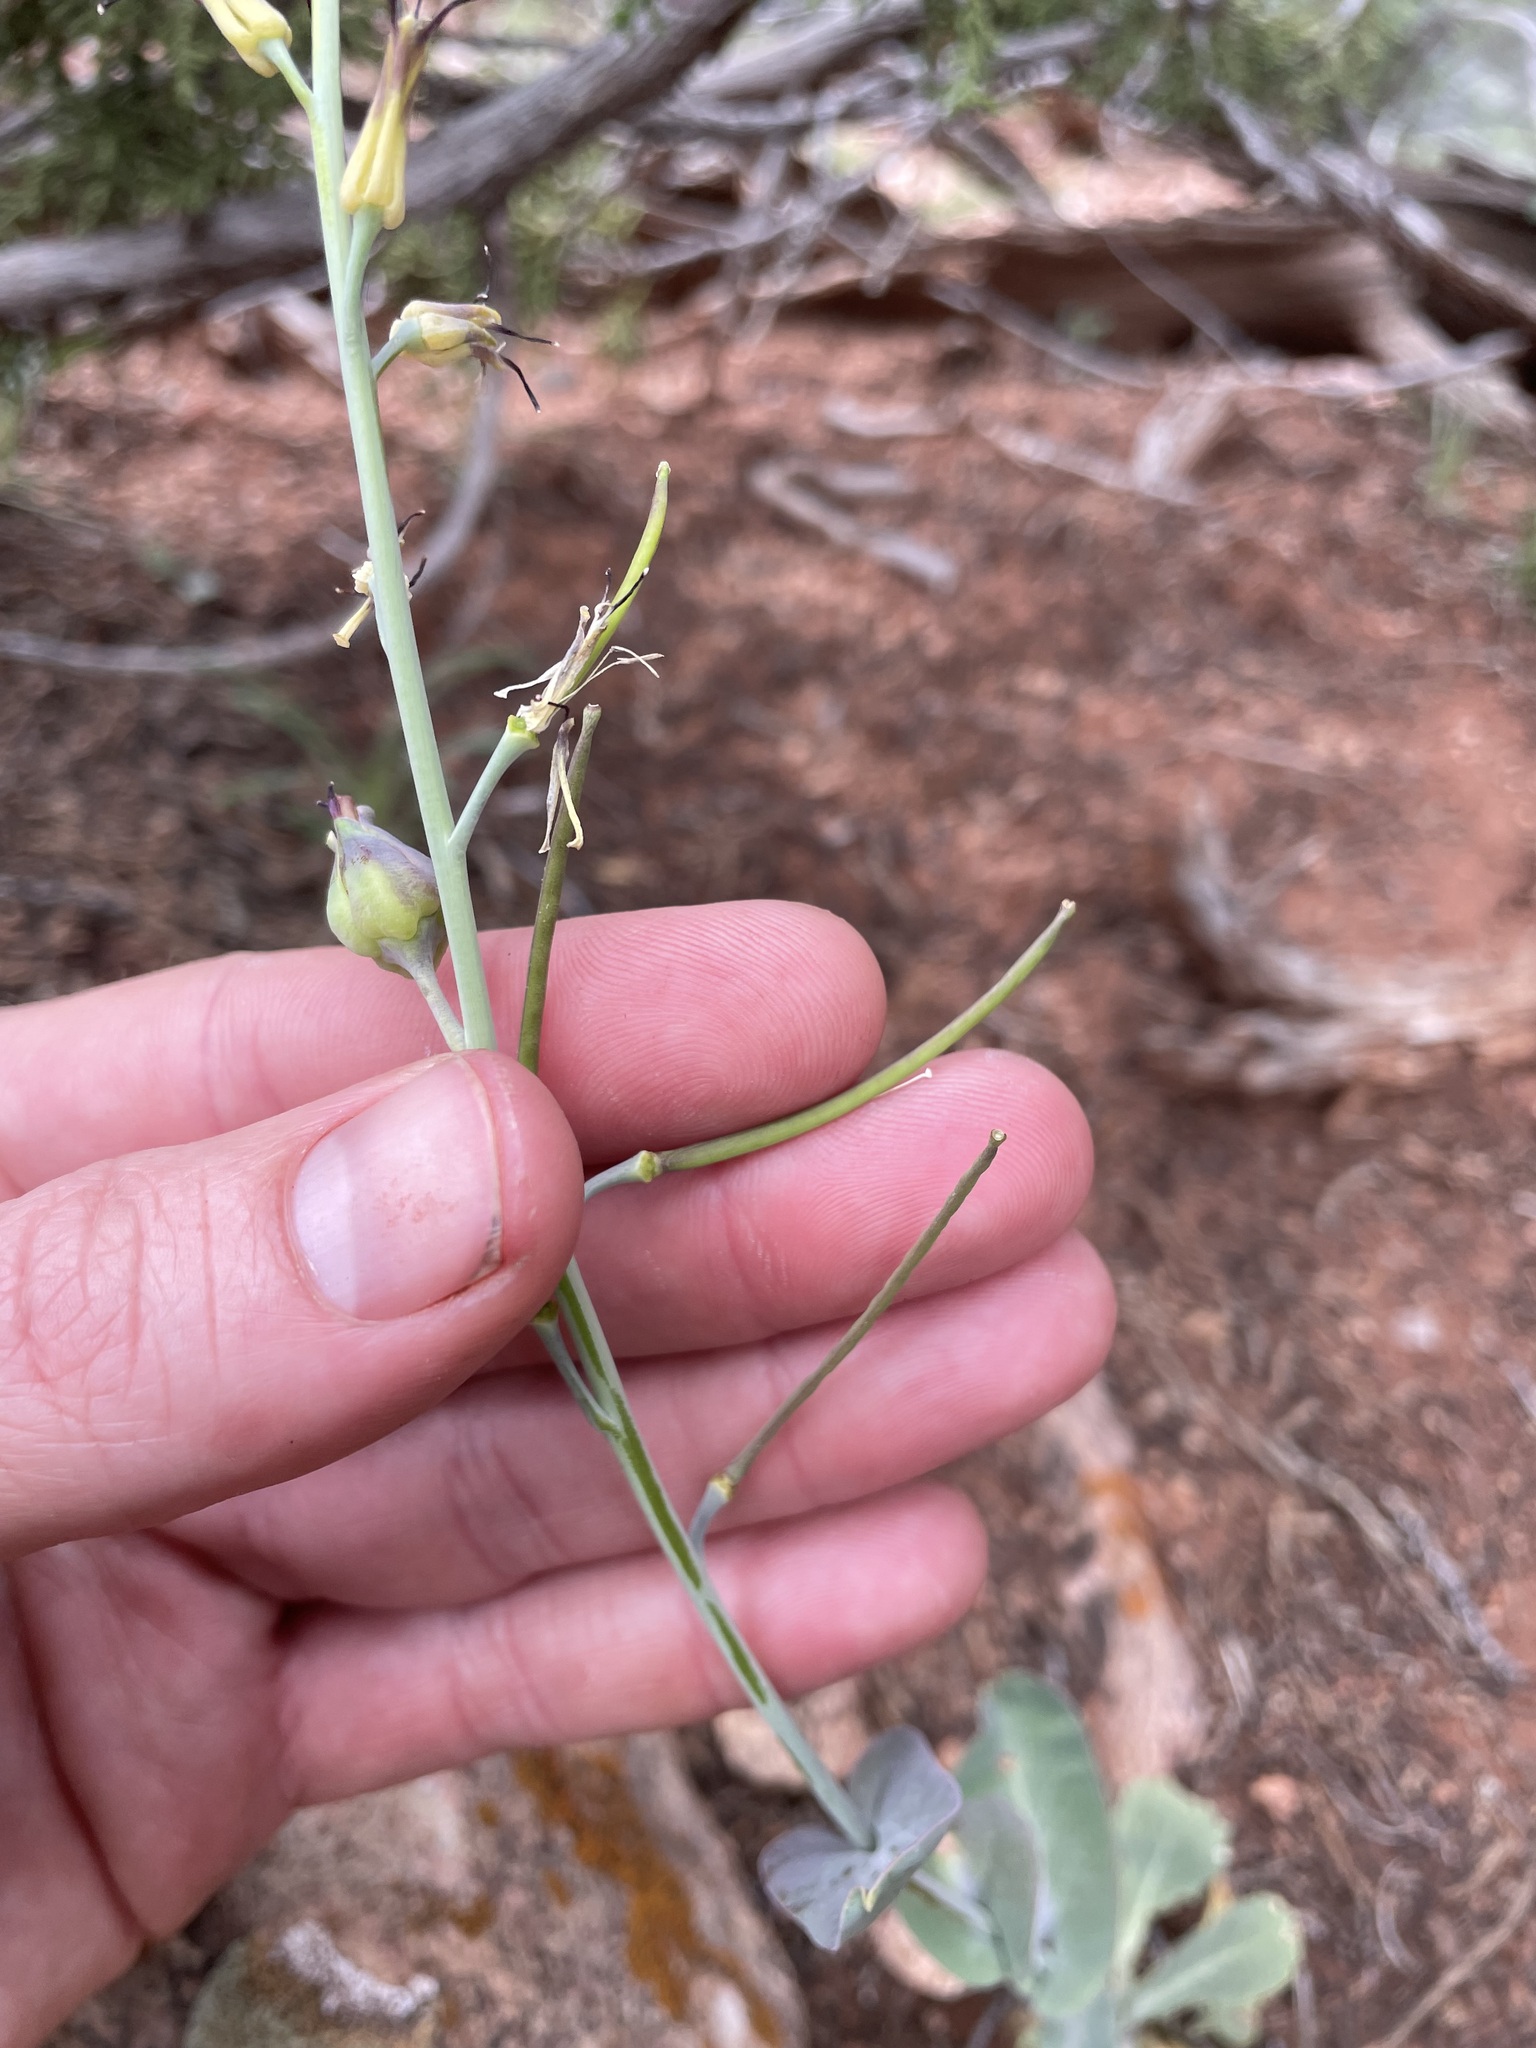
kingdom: Plantae
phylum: Tracheophyta
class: Magnoliopsida
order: Brassicales
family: Brassicaceae
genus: Streptanthus
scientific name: Streptanthus cordatus
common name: Heart-leaf jewel-flower
